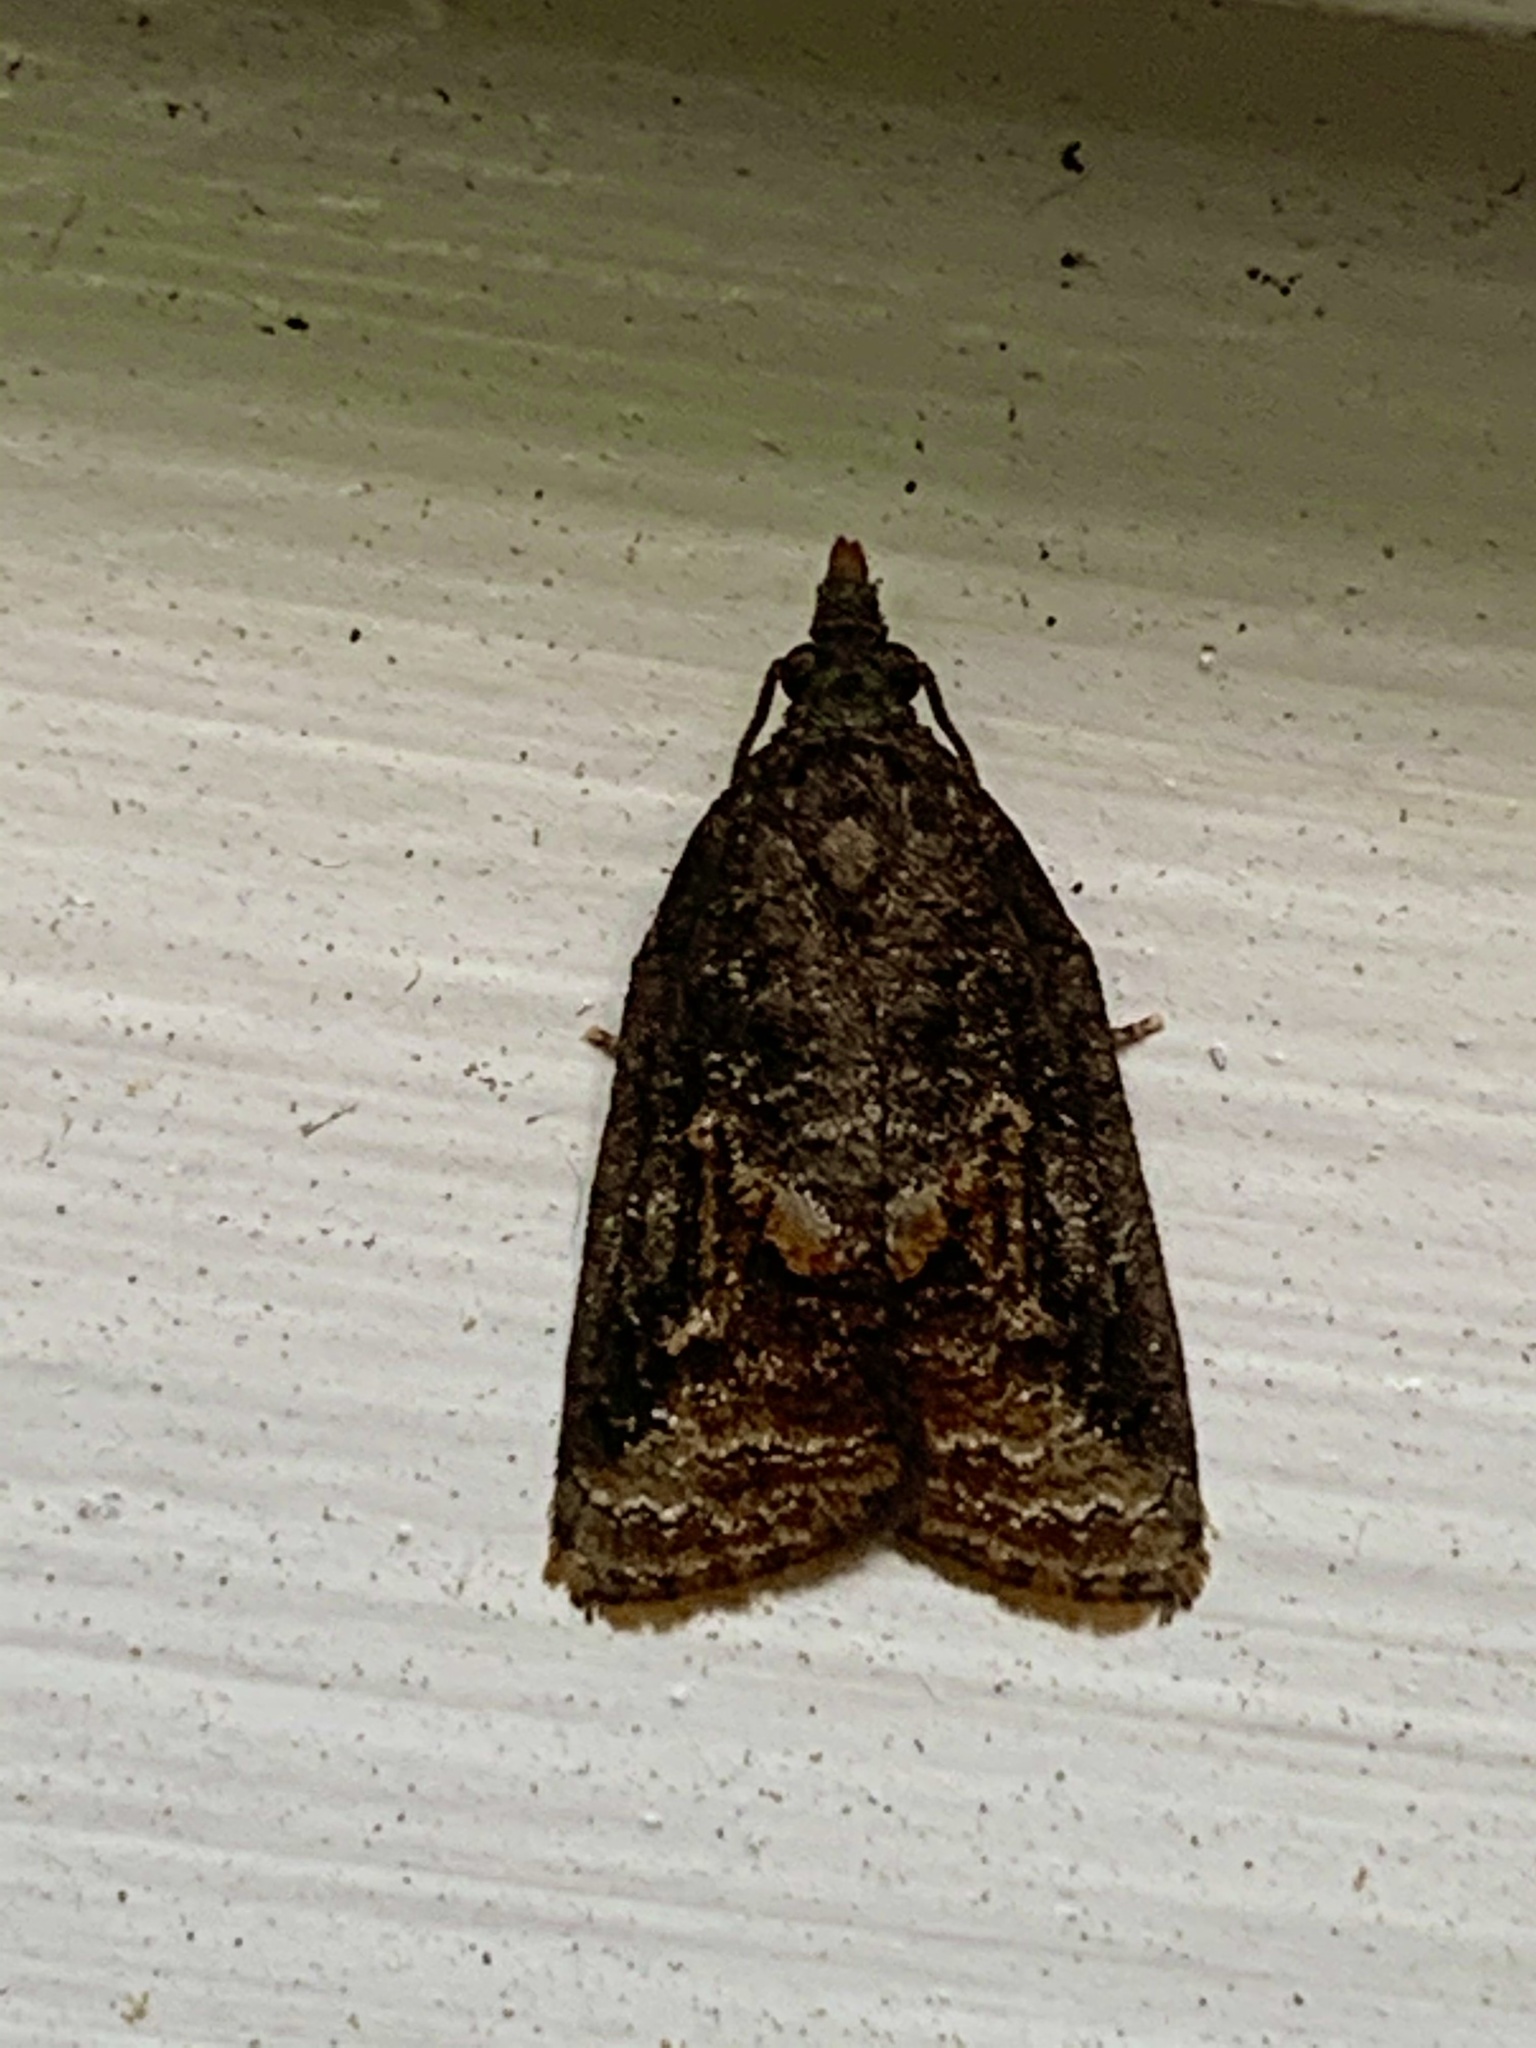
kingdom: Animalia
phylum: Arthropoda
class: Insecta
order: Lepidoptera
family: Tortricidae
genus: Platynota
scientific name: Platynota idaeusalis
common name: Tufted apple bud moth
